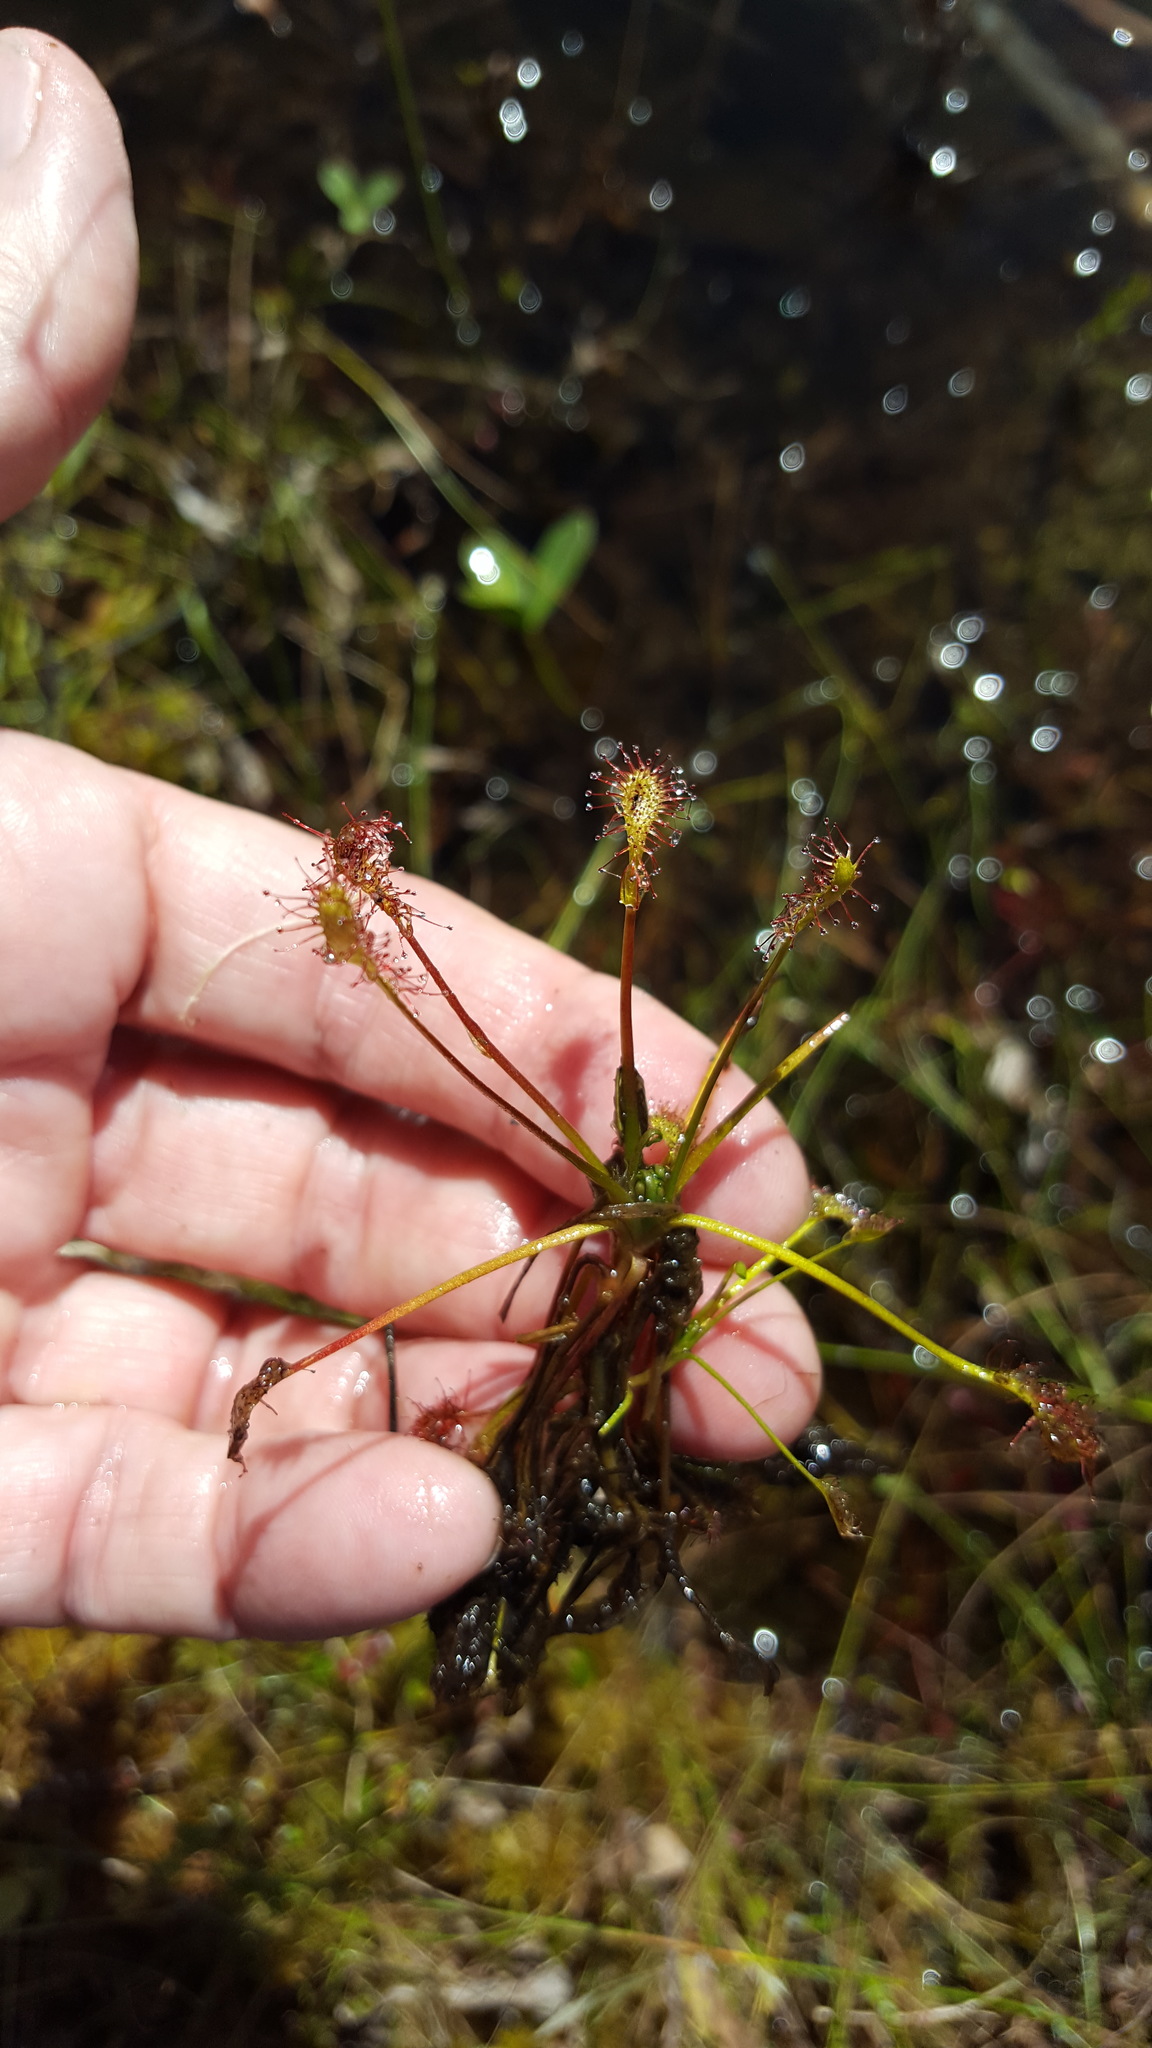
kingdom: Plantae
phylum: Tracheophyta
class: Magnoliopsida
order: Caryophyllales
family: Droseraceae
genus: Drosera
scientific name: Drosera intermedia
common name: Oblong-leaved sundew
